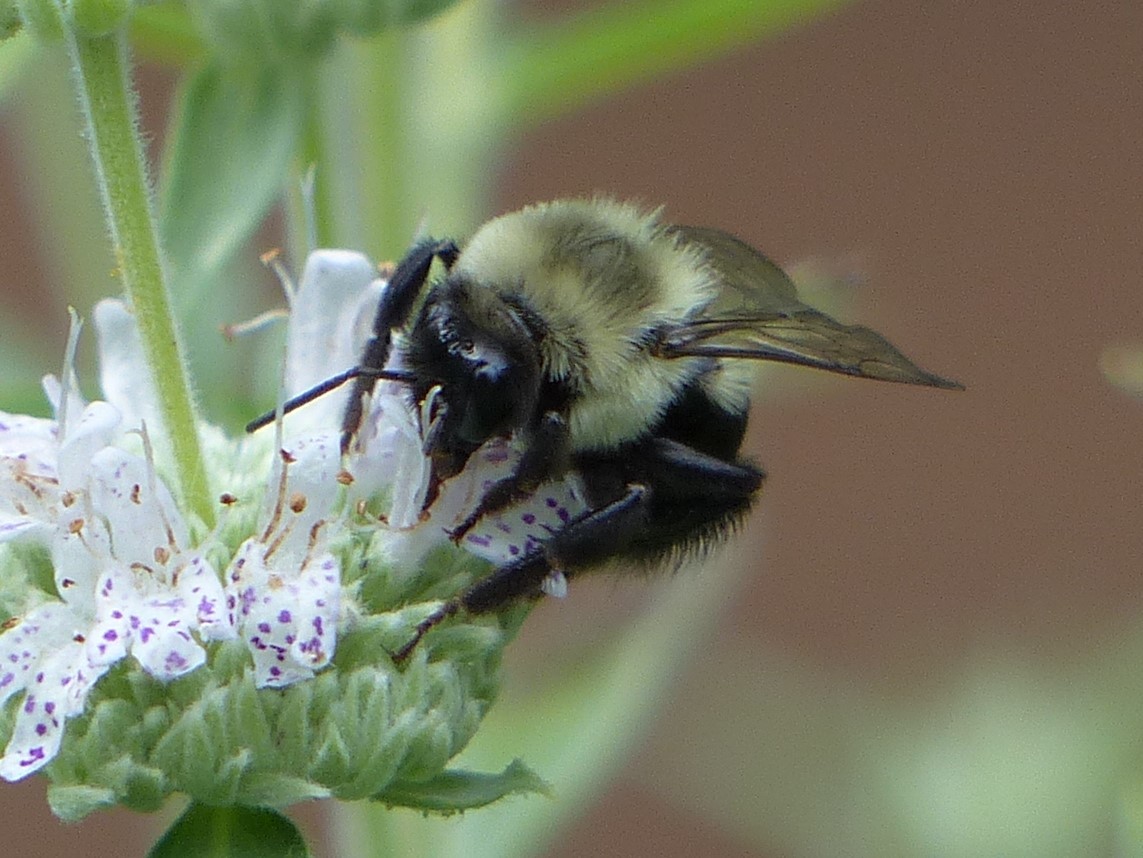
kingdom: Animalia
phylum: Arthropoda
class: Insecta
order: Hymenoptera
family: Apidae
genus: Bombus
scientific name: Bombus impatiens
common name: Common eastern bumble bee
